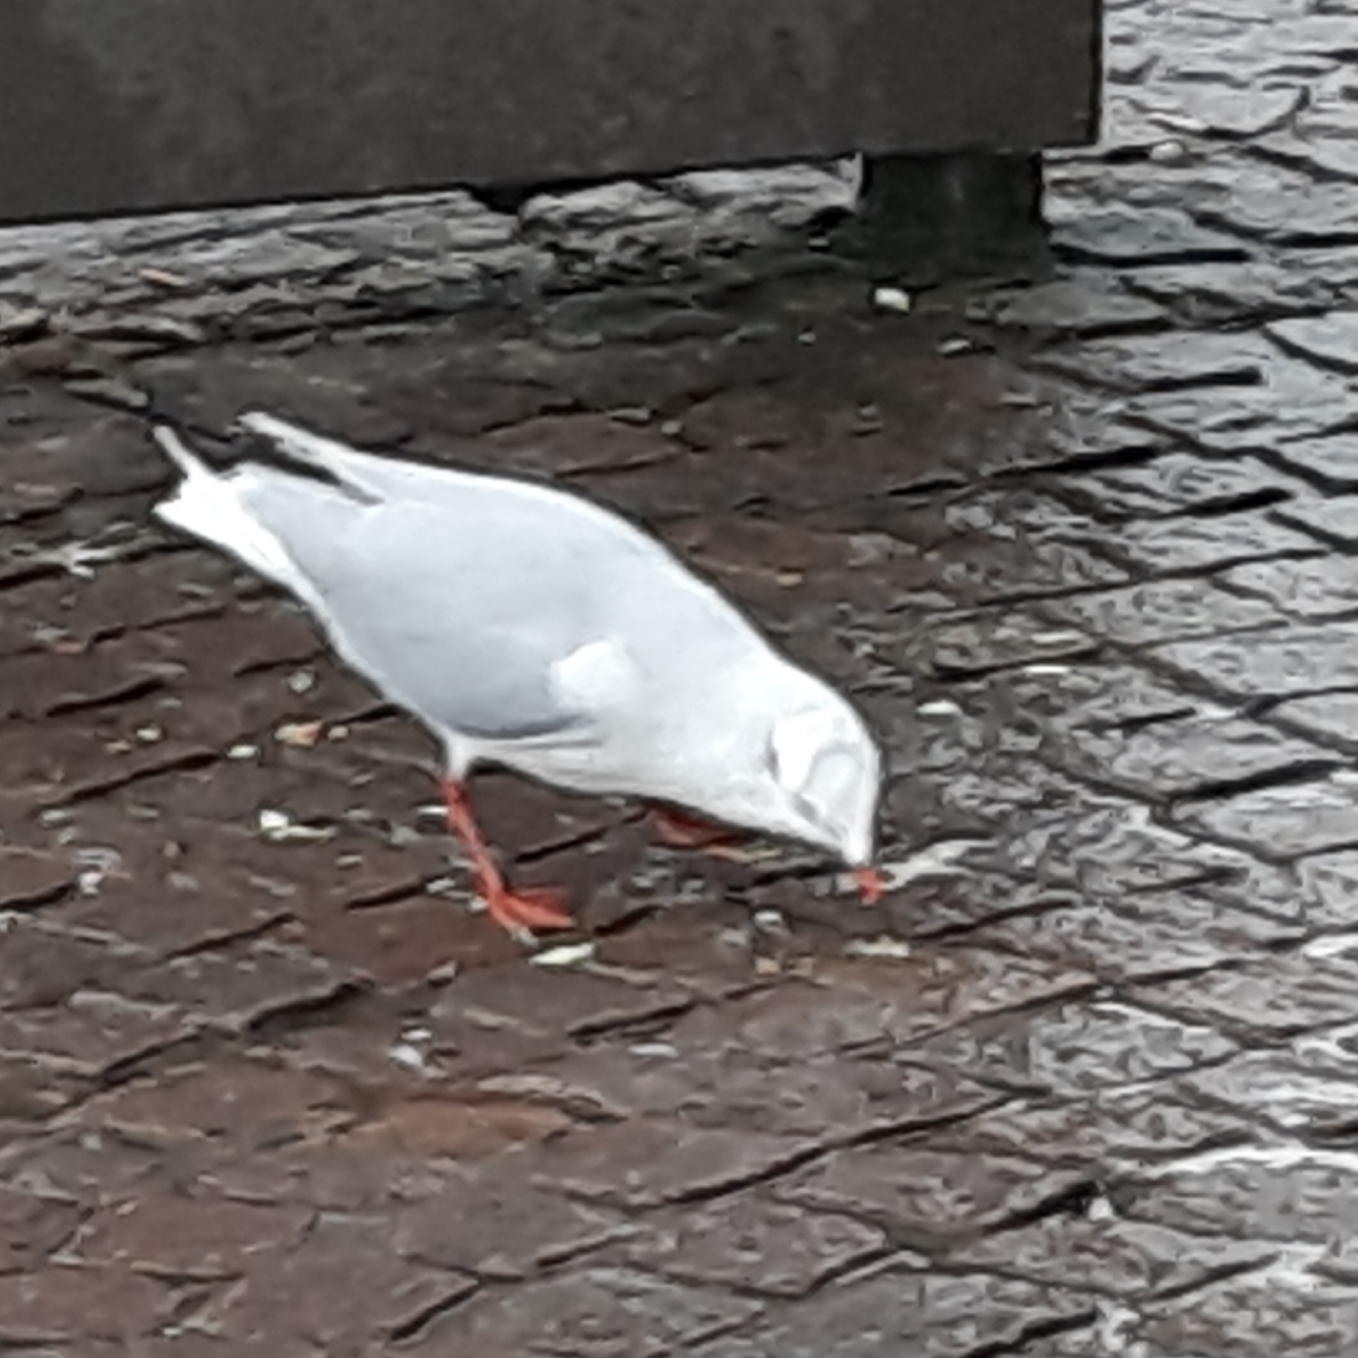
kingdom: Animalia
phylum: Chordata
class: Aves
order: Charadriiformes
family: Laridae
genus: Chroicocephalus
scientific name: Chroicocephalus ridibundus
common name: Black-headed gull
